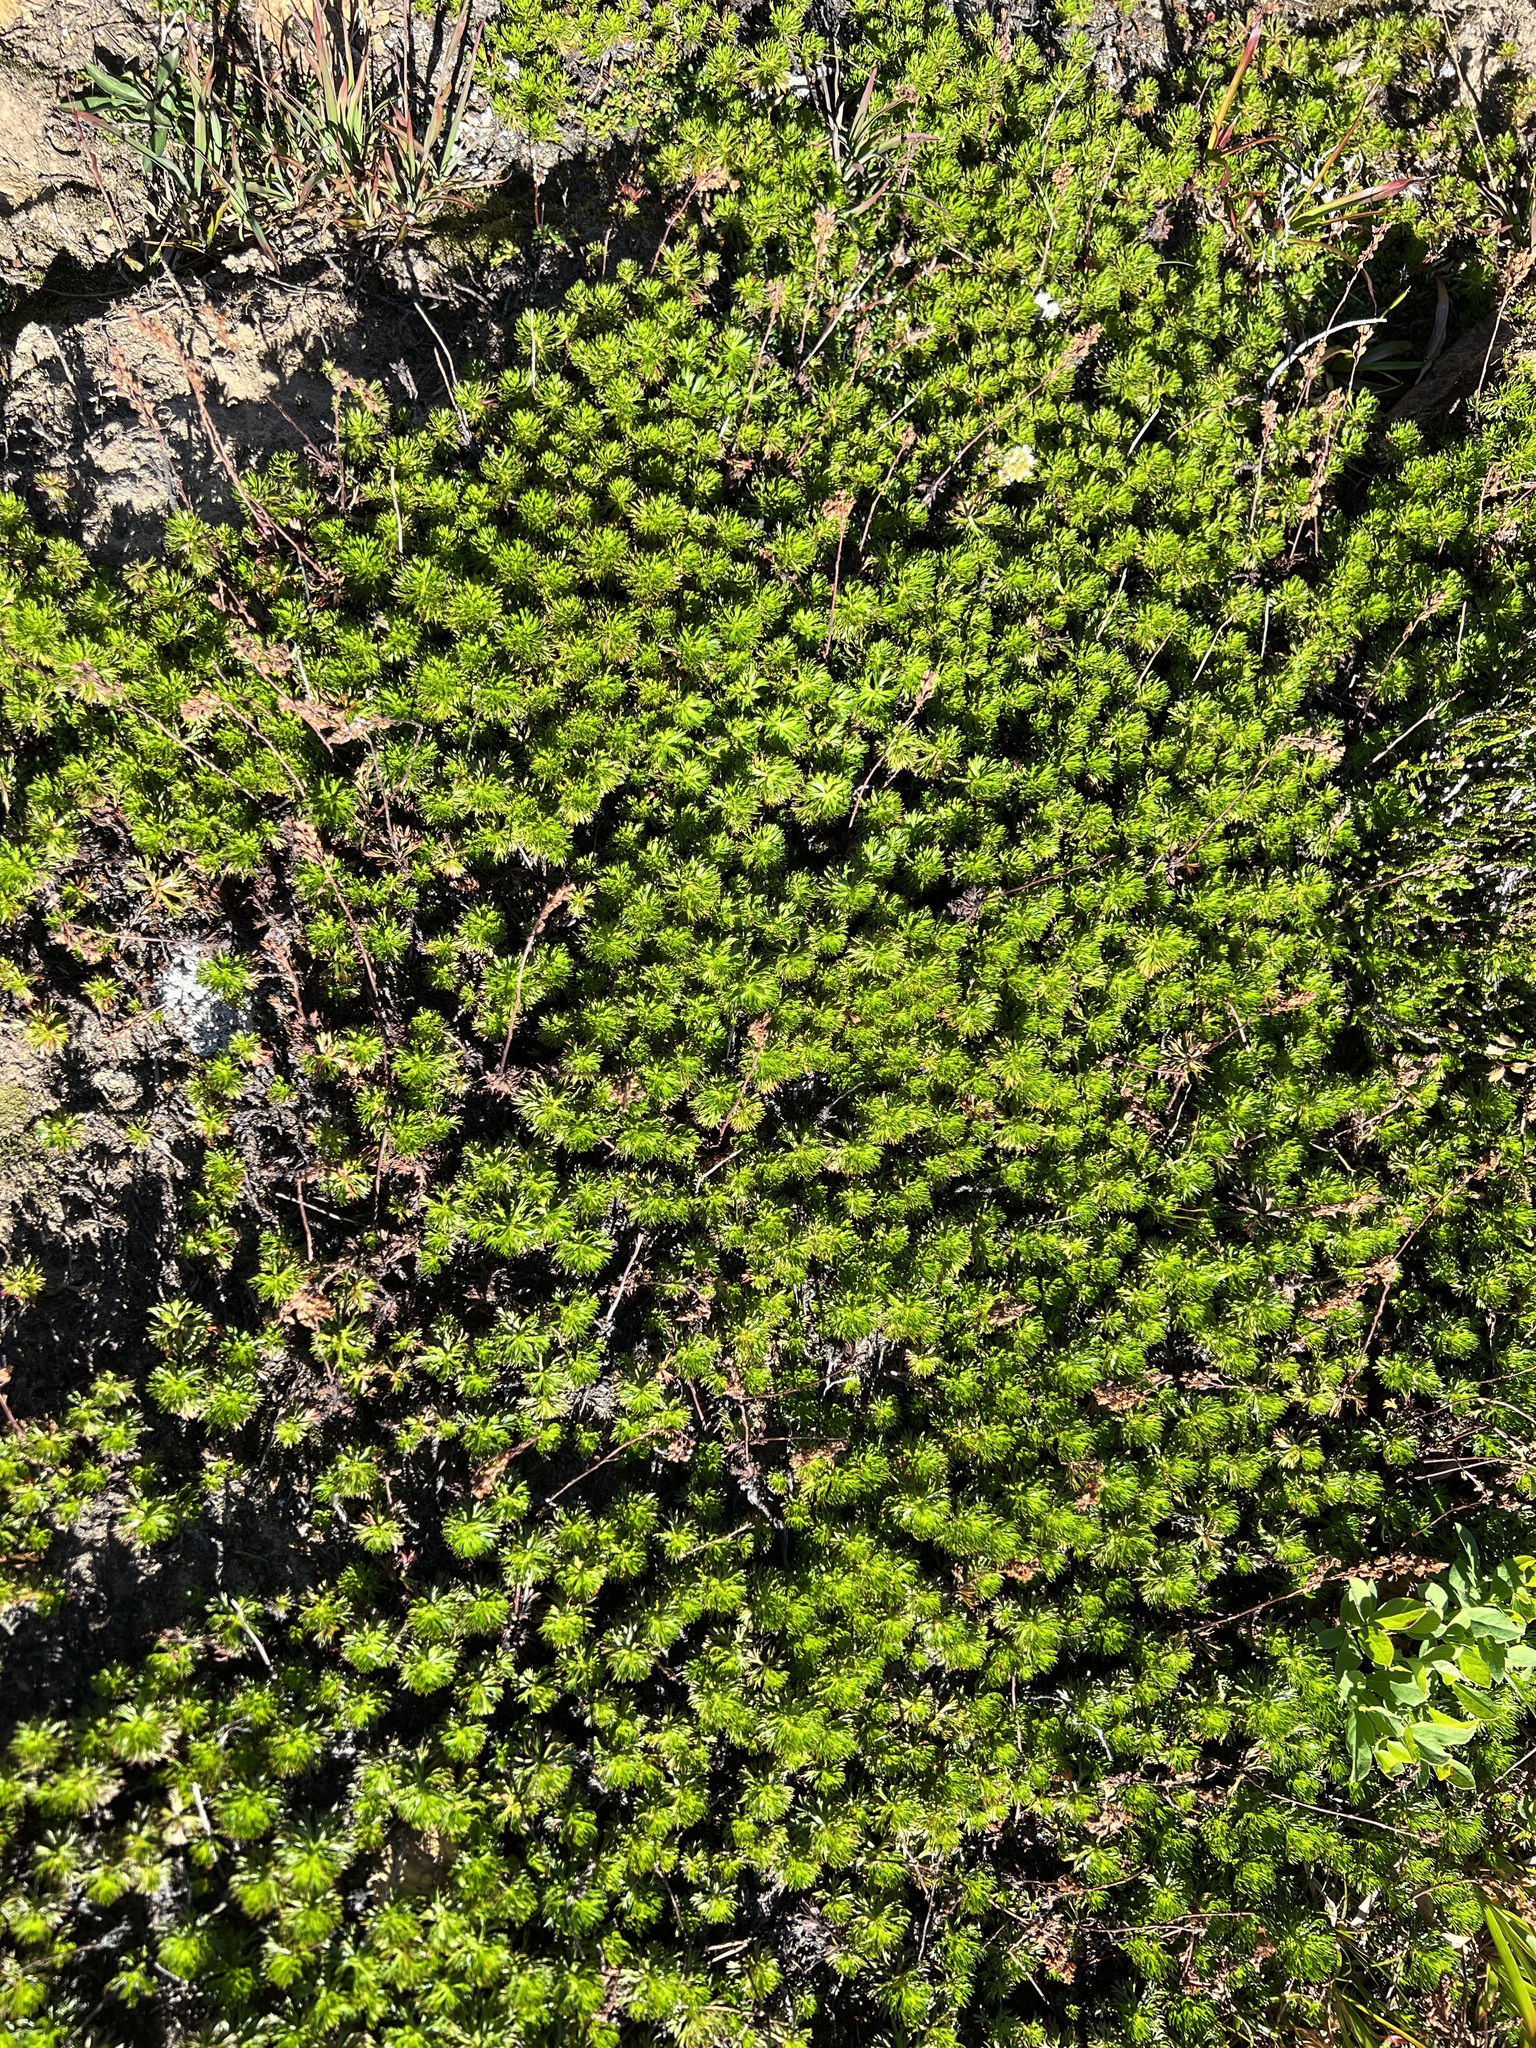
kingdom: Plantae
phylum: Tracheophyta
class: Magnoliopsida
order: Rosales
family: Rosaceae
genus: Luetkea
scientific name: Luetkea pectinata
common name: Partridgefoot
